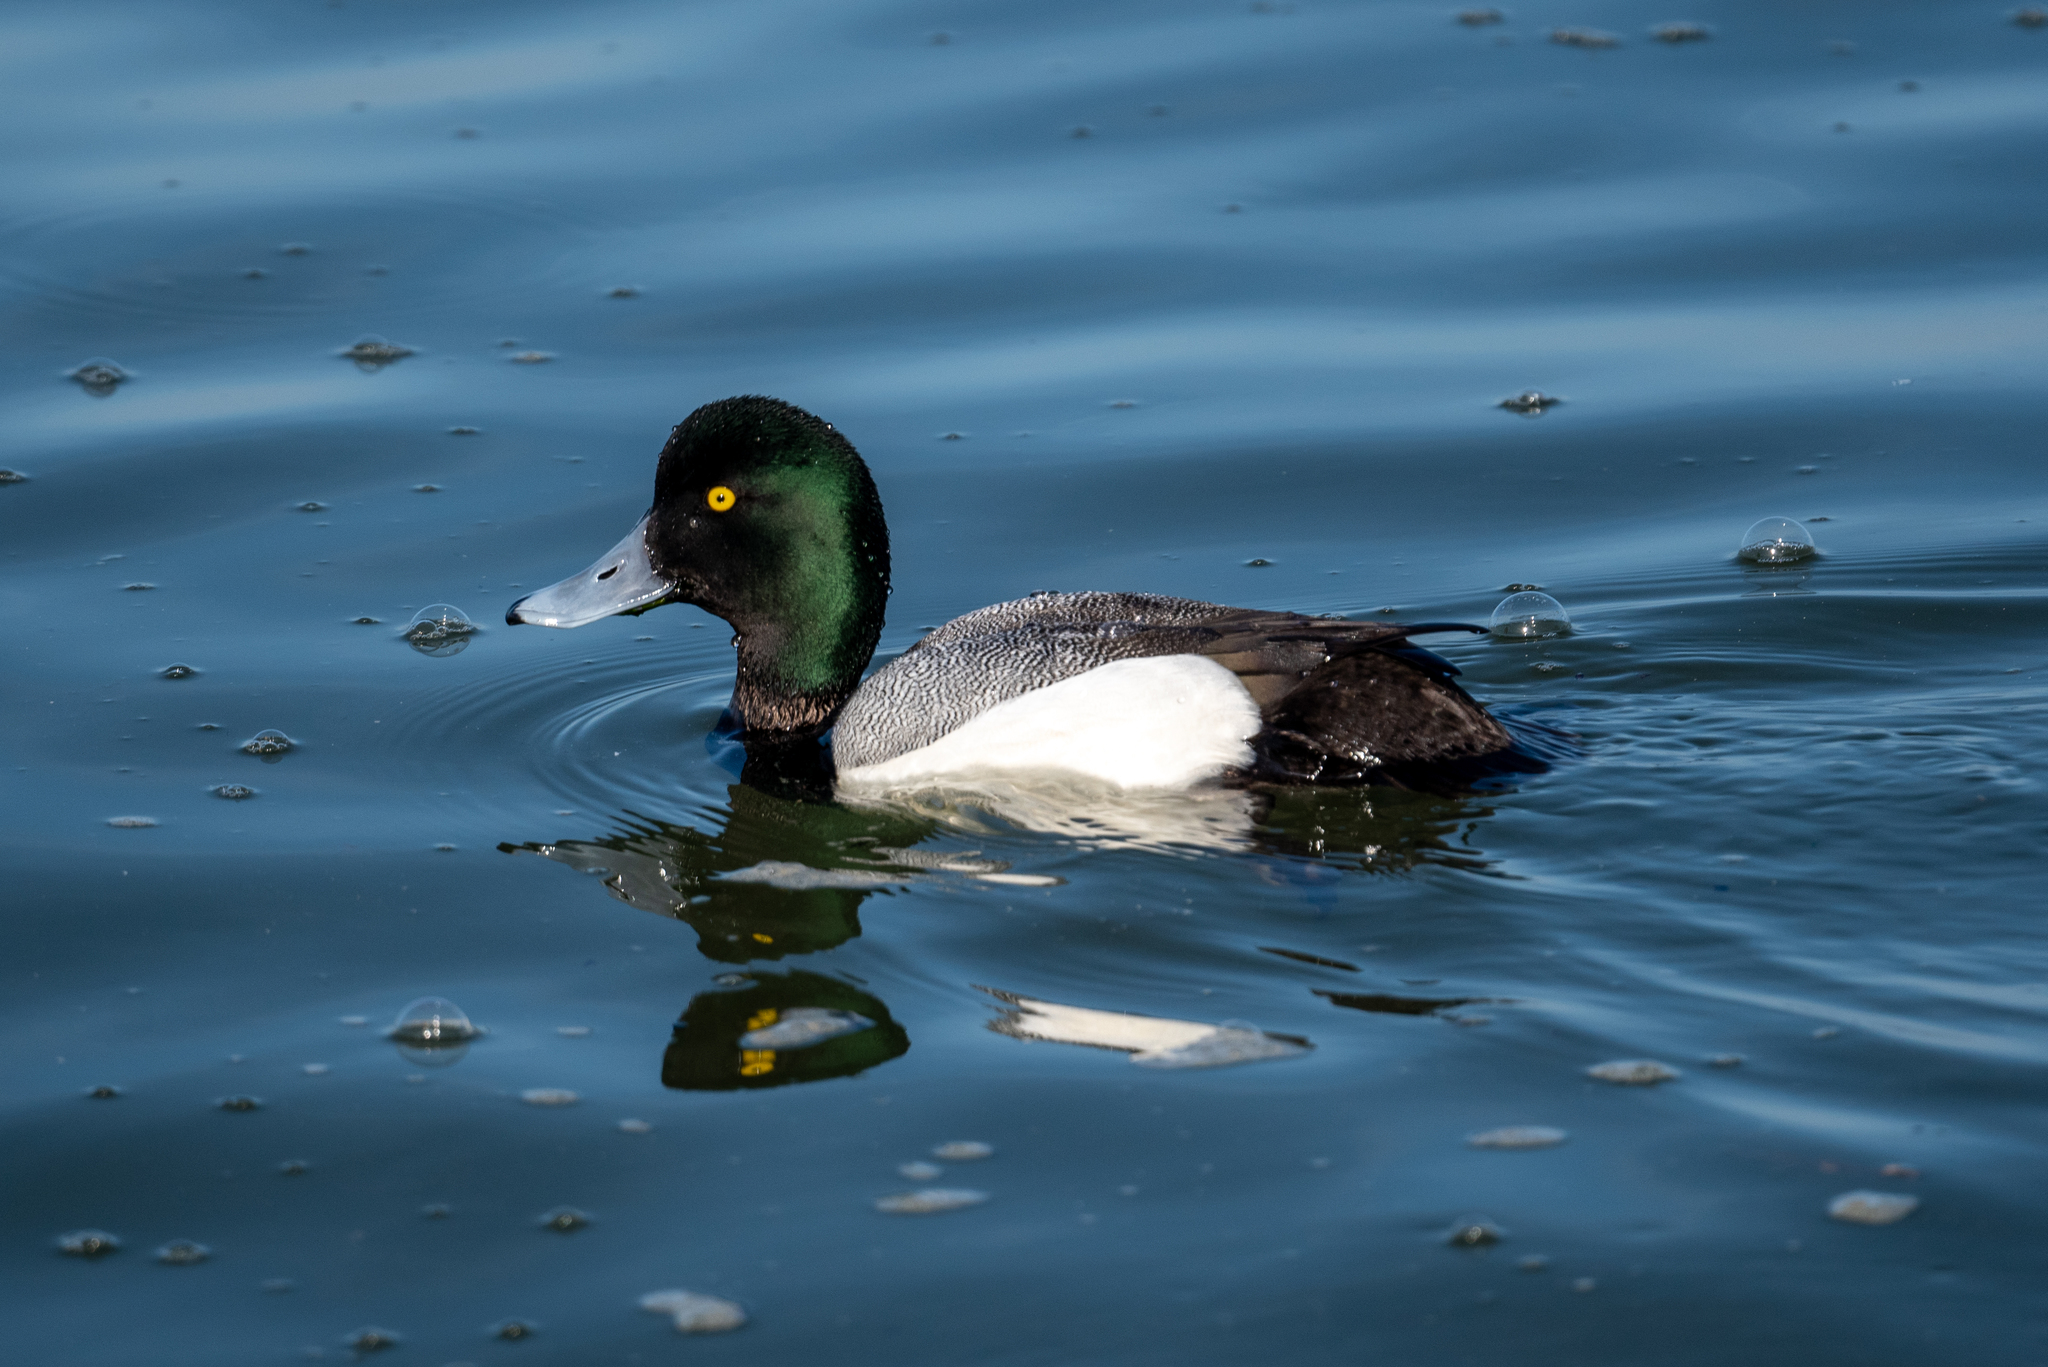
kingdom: Animalia
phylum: Chordata
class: Aves
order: Anseriformes
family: Anatidae
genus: Aythya
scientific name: Aythya marila
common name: Greater scaup
